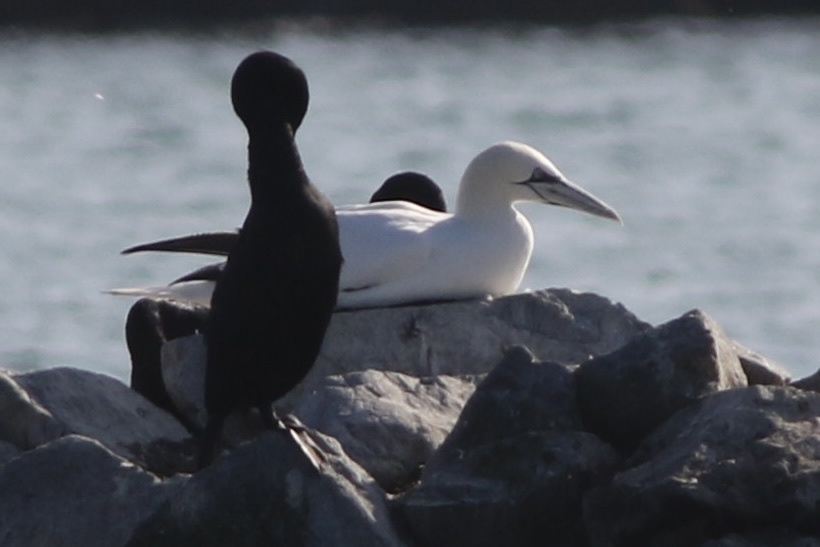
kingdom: Animalia
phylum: Chordata
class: Aves
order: Suliformes
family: Sulidae
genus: Morus
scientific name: Morus bassanus
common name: Northern gannet
